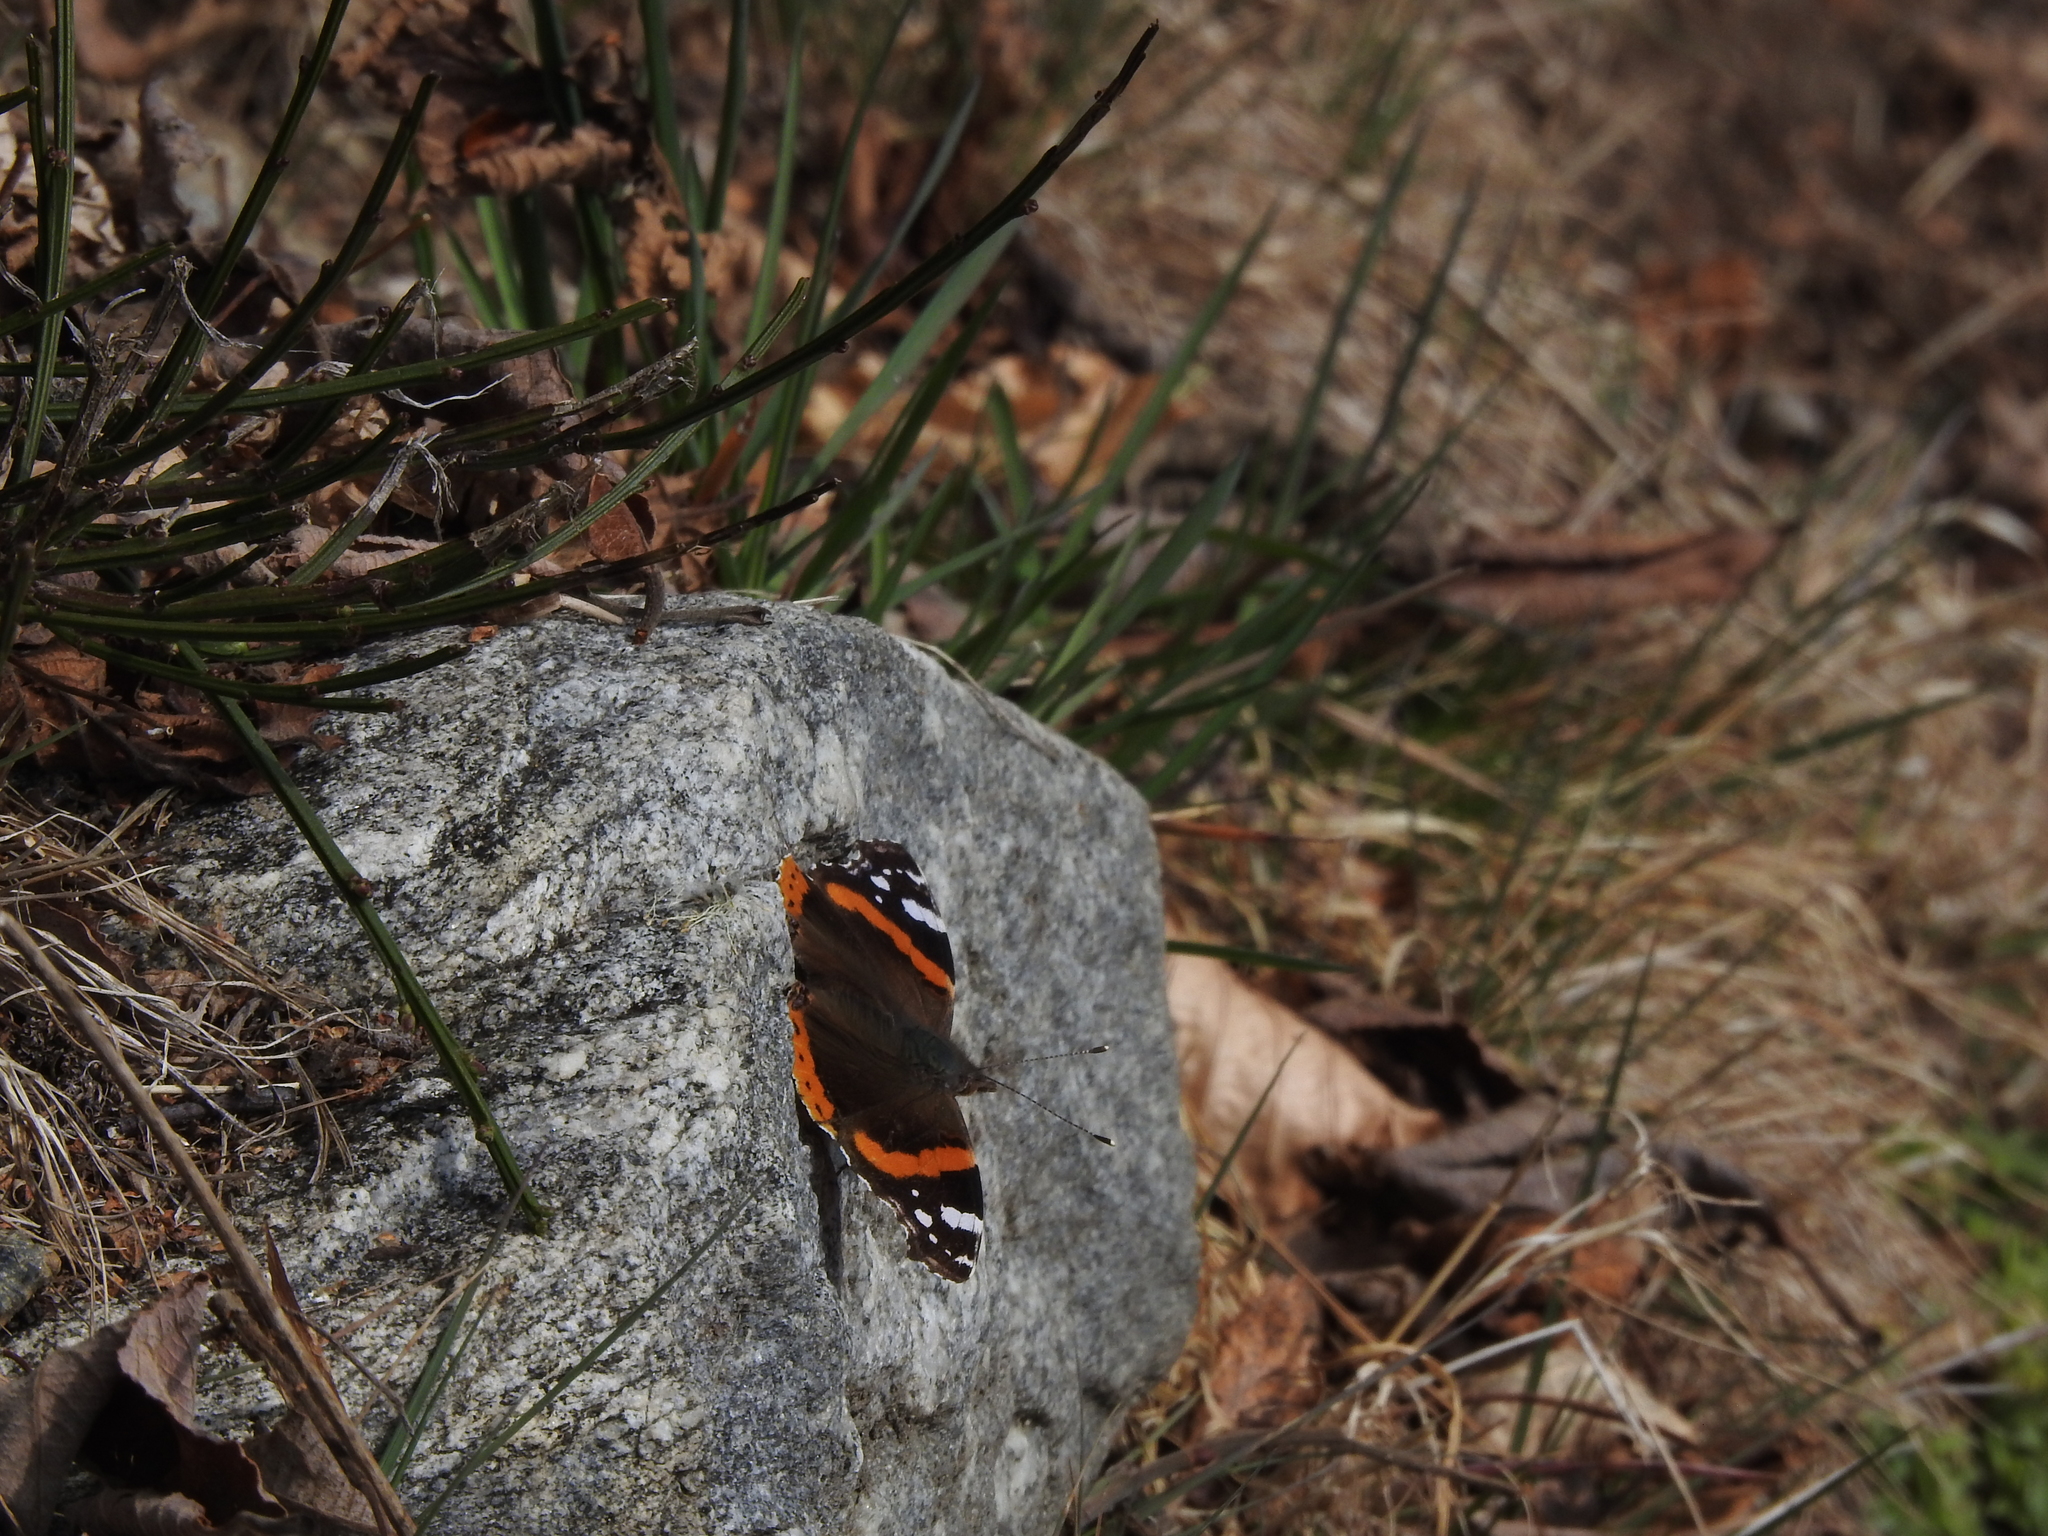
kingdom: Animalia
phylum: Arthropoda
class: Insecta
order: Lepidoptera
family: Nymphalidae
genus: Vanessa
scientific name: Vanessa atalanta
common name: Red admiral
